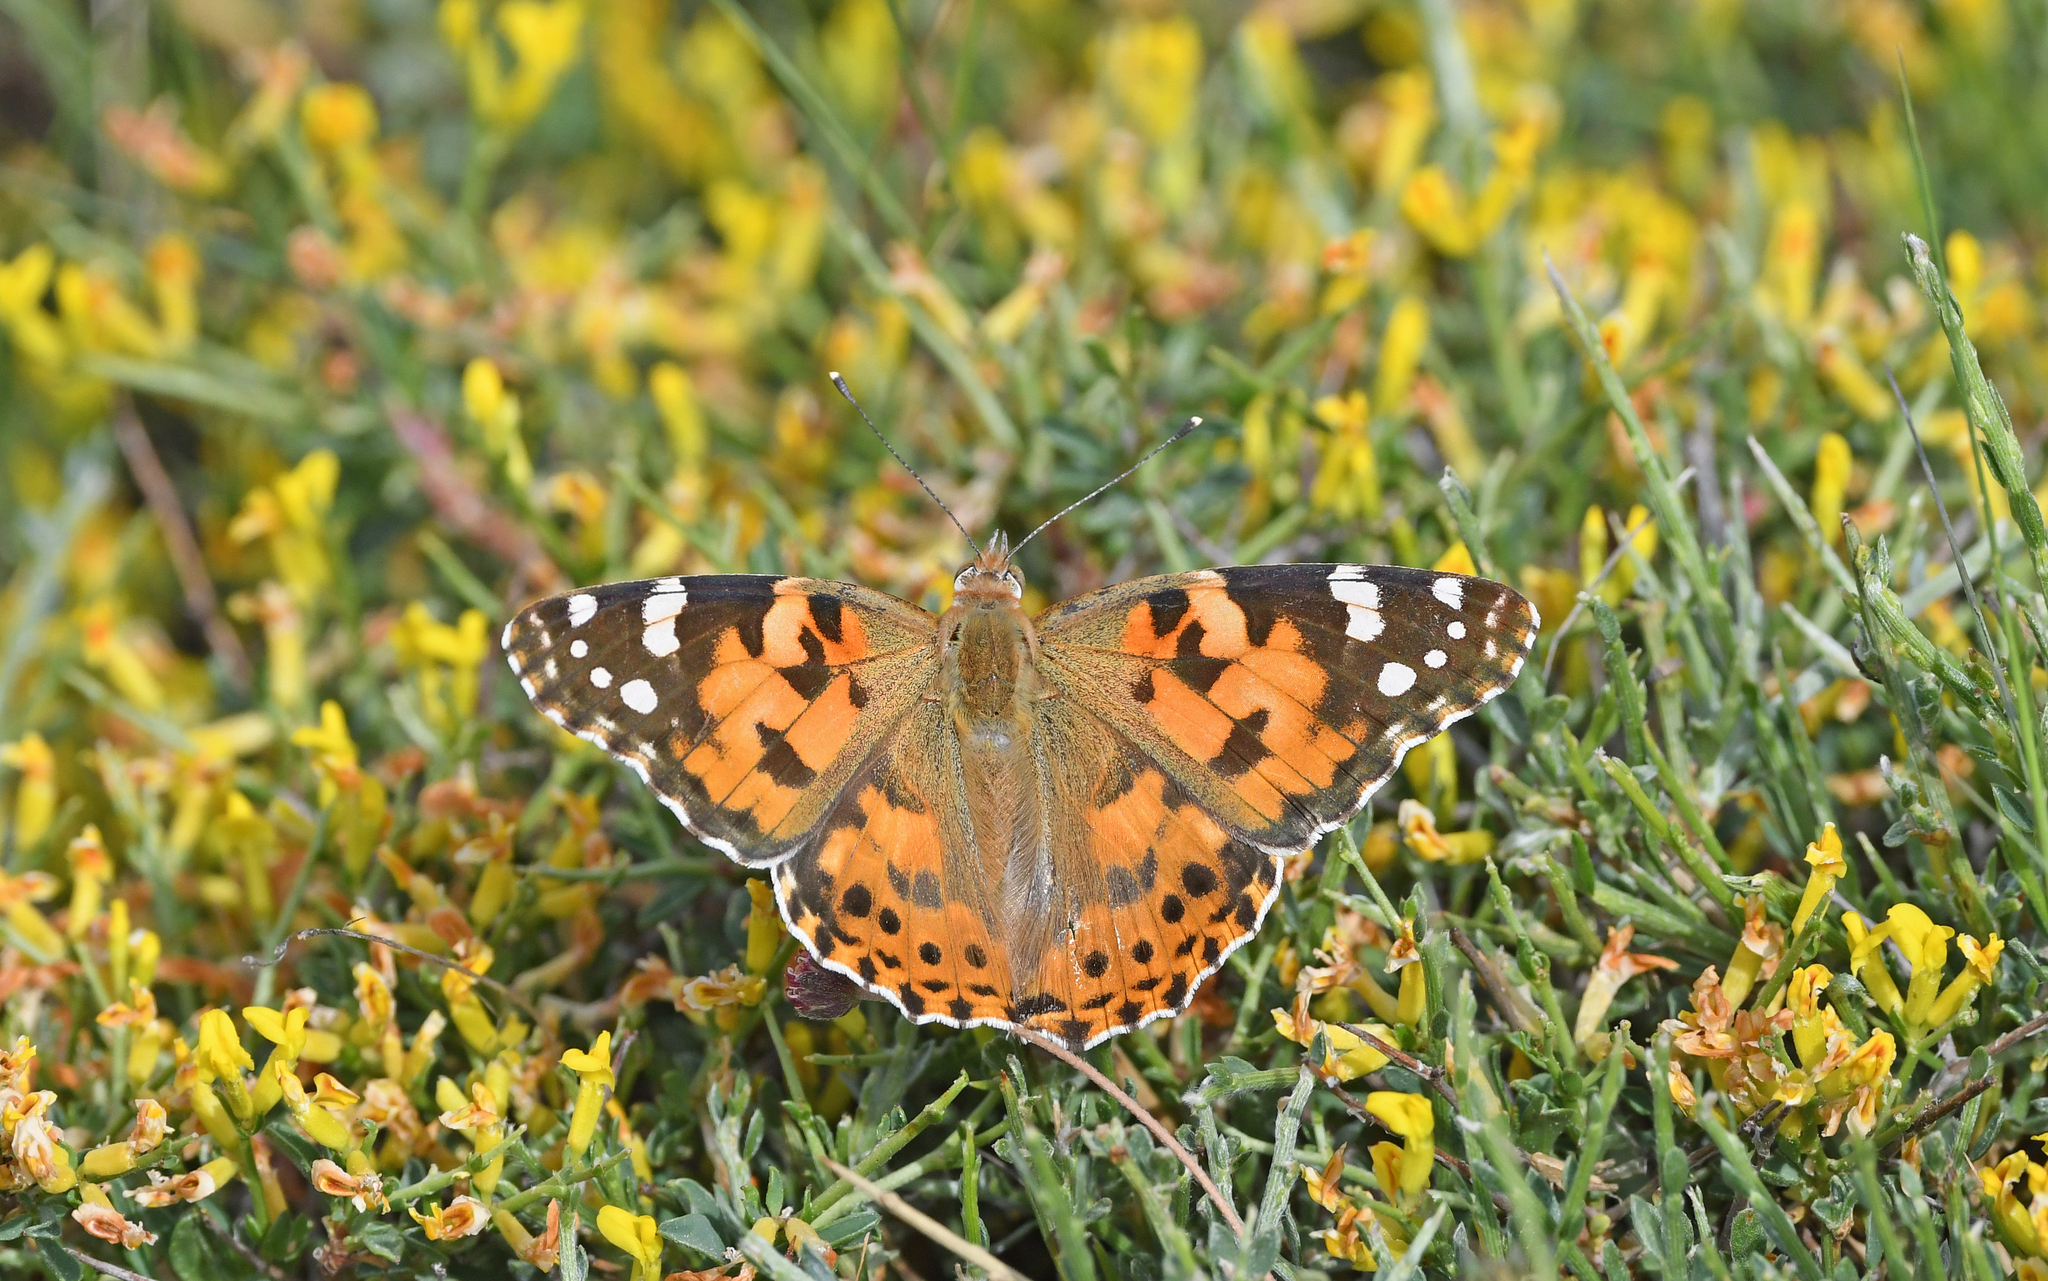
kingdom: Animalia
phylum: Arthropoda
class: Insecta
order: Lepidoptera
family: Nymphalidae
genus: Vanessa
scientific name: Vanessa cardui
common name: Painted lady
